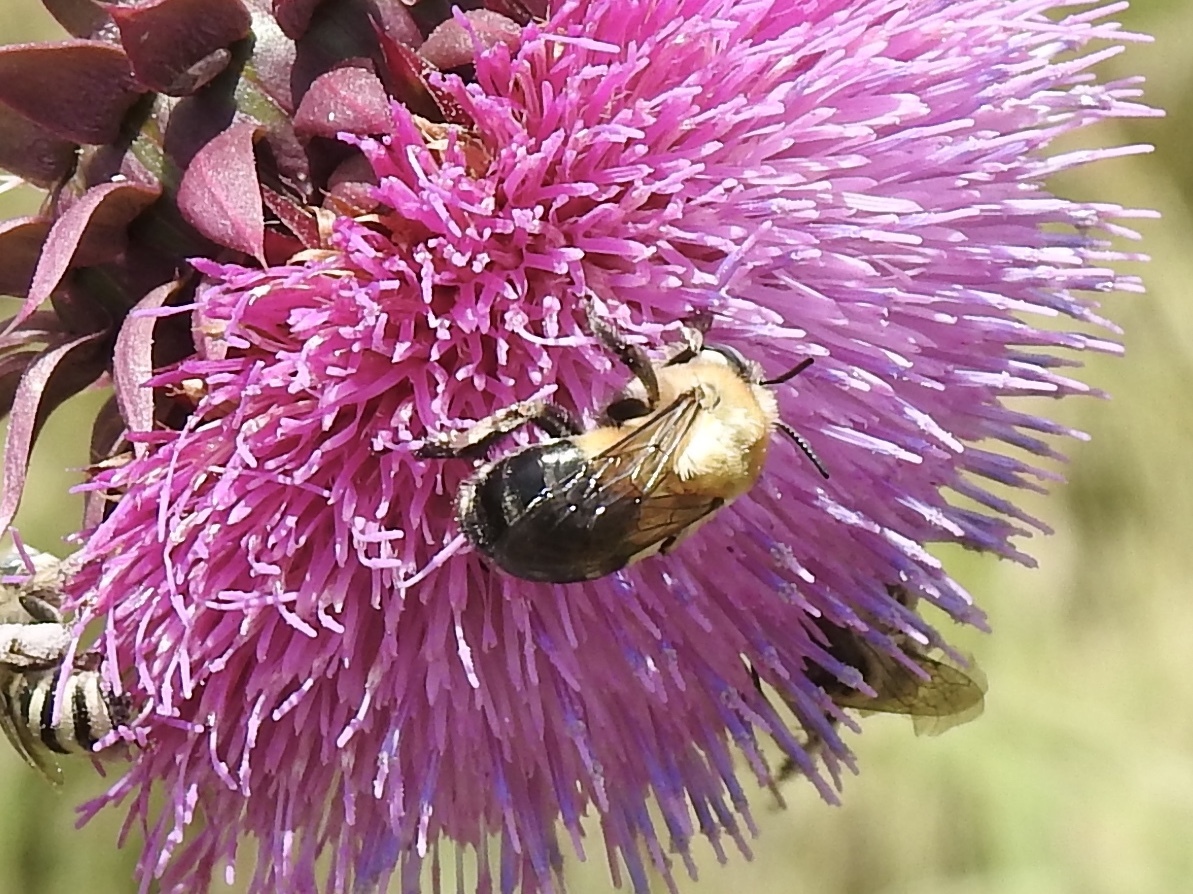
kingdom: Animalia
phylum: Arthropoda
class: Insecta
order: Hymenoptera
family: Apidae
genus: Anthophora
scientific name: Anthophora montana
